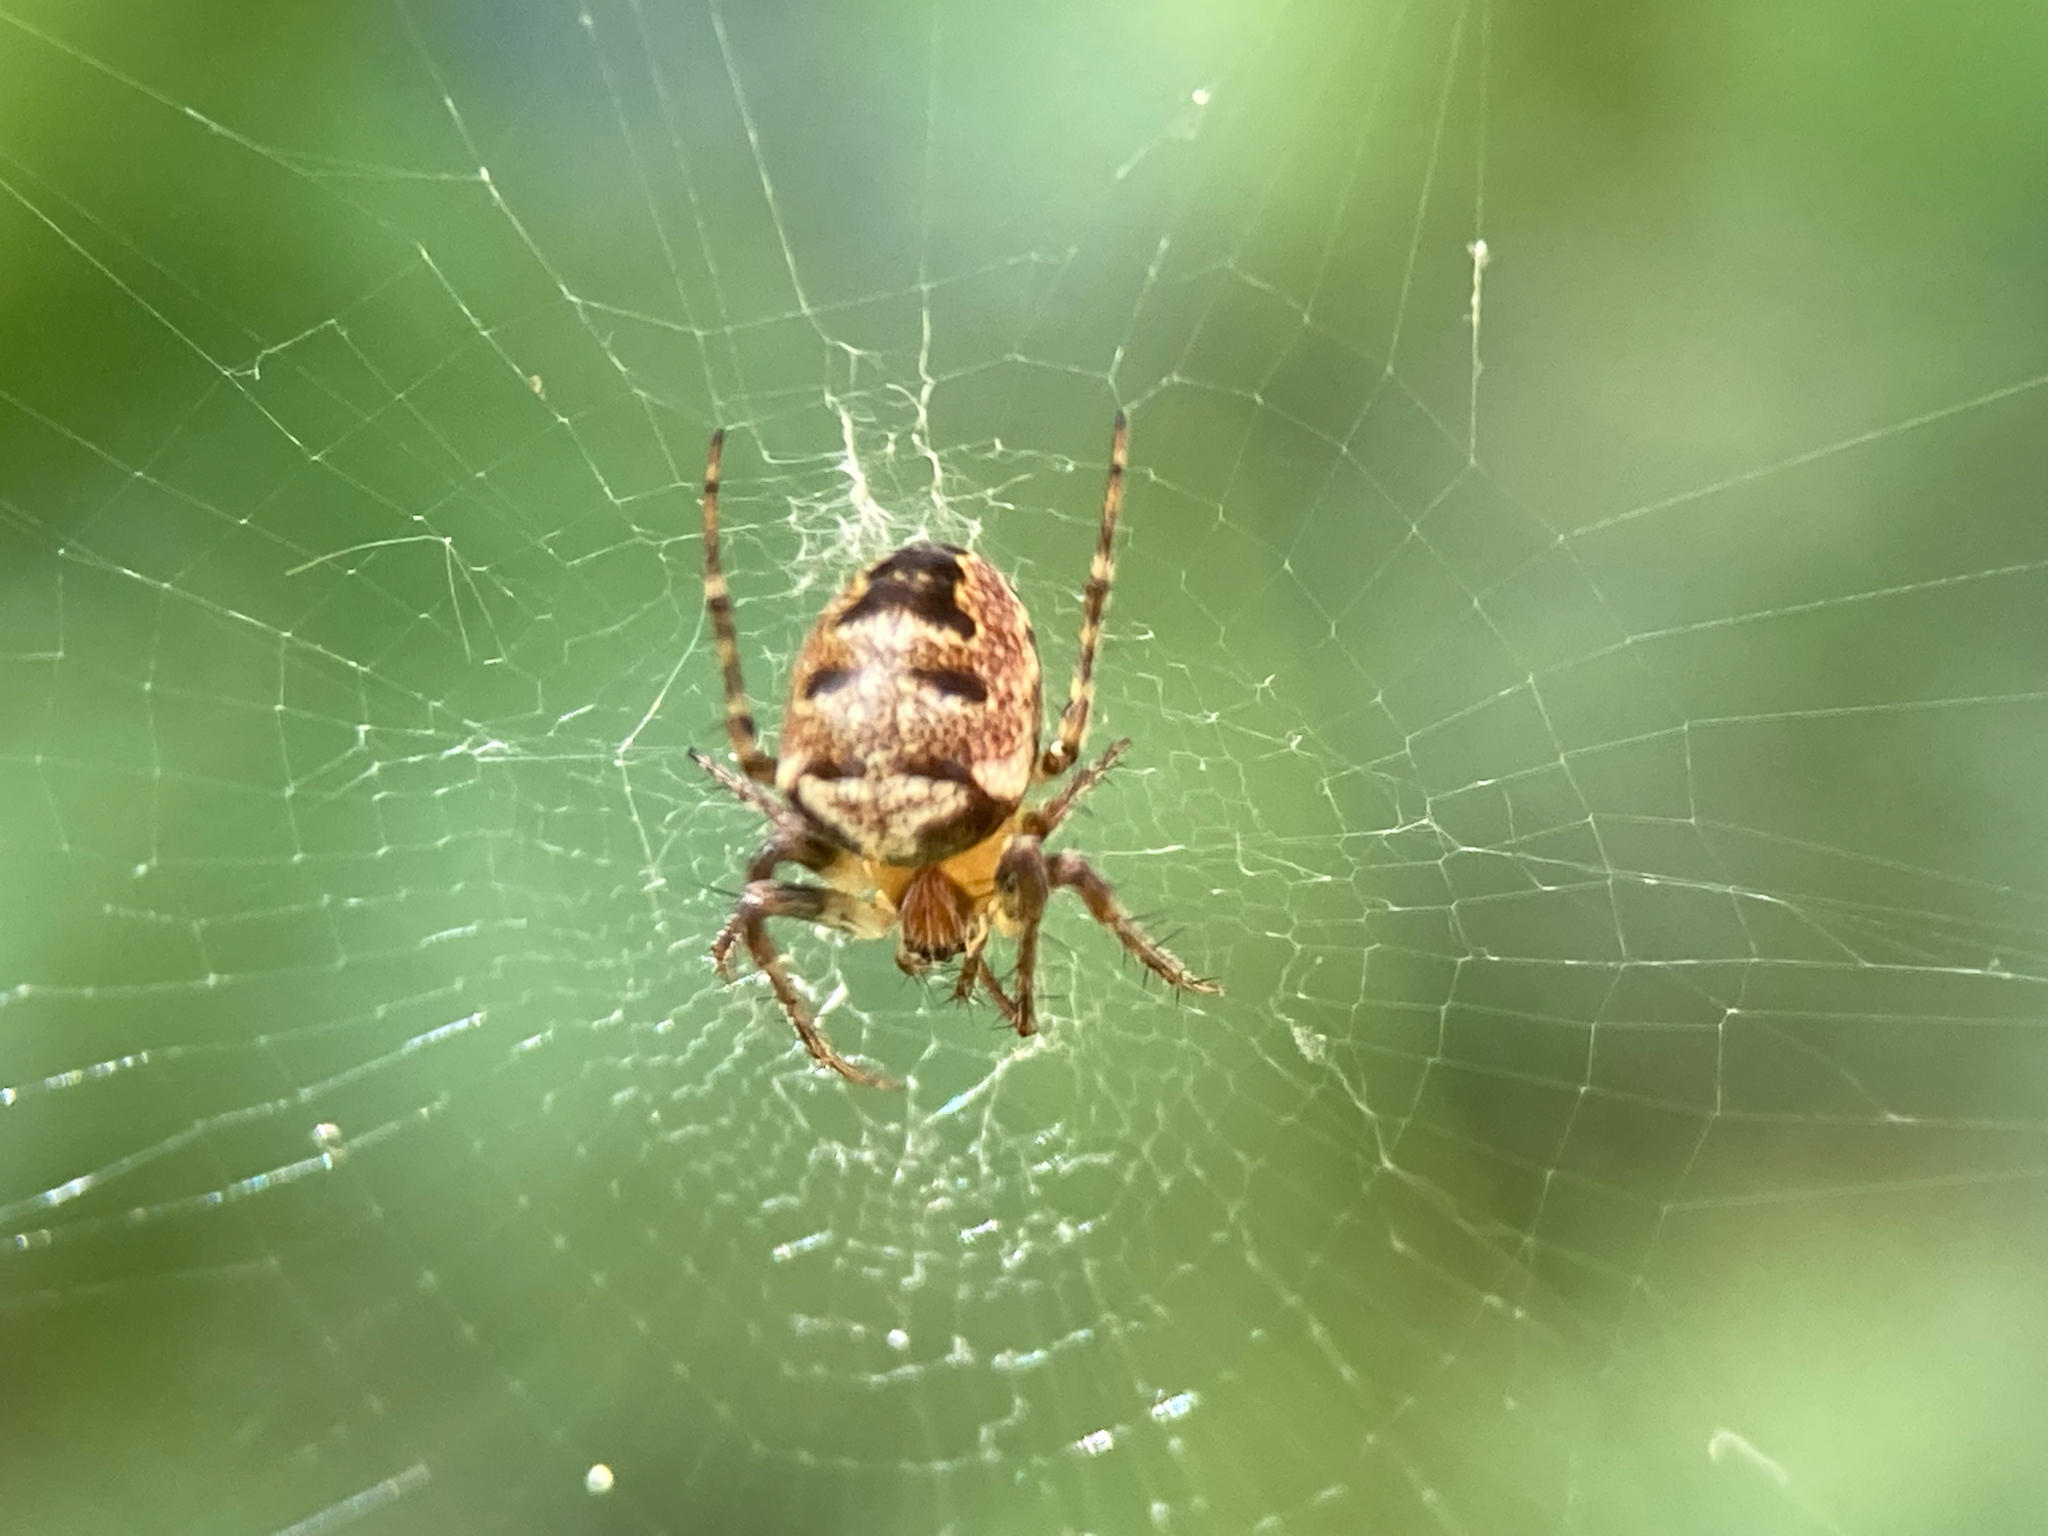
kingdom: Animalia
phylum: Arthropoda
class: Arachnida
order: Araneae
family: Araneidae
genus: Zilla
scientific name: Zilla diodia
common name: Zilla diodia
